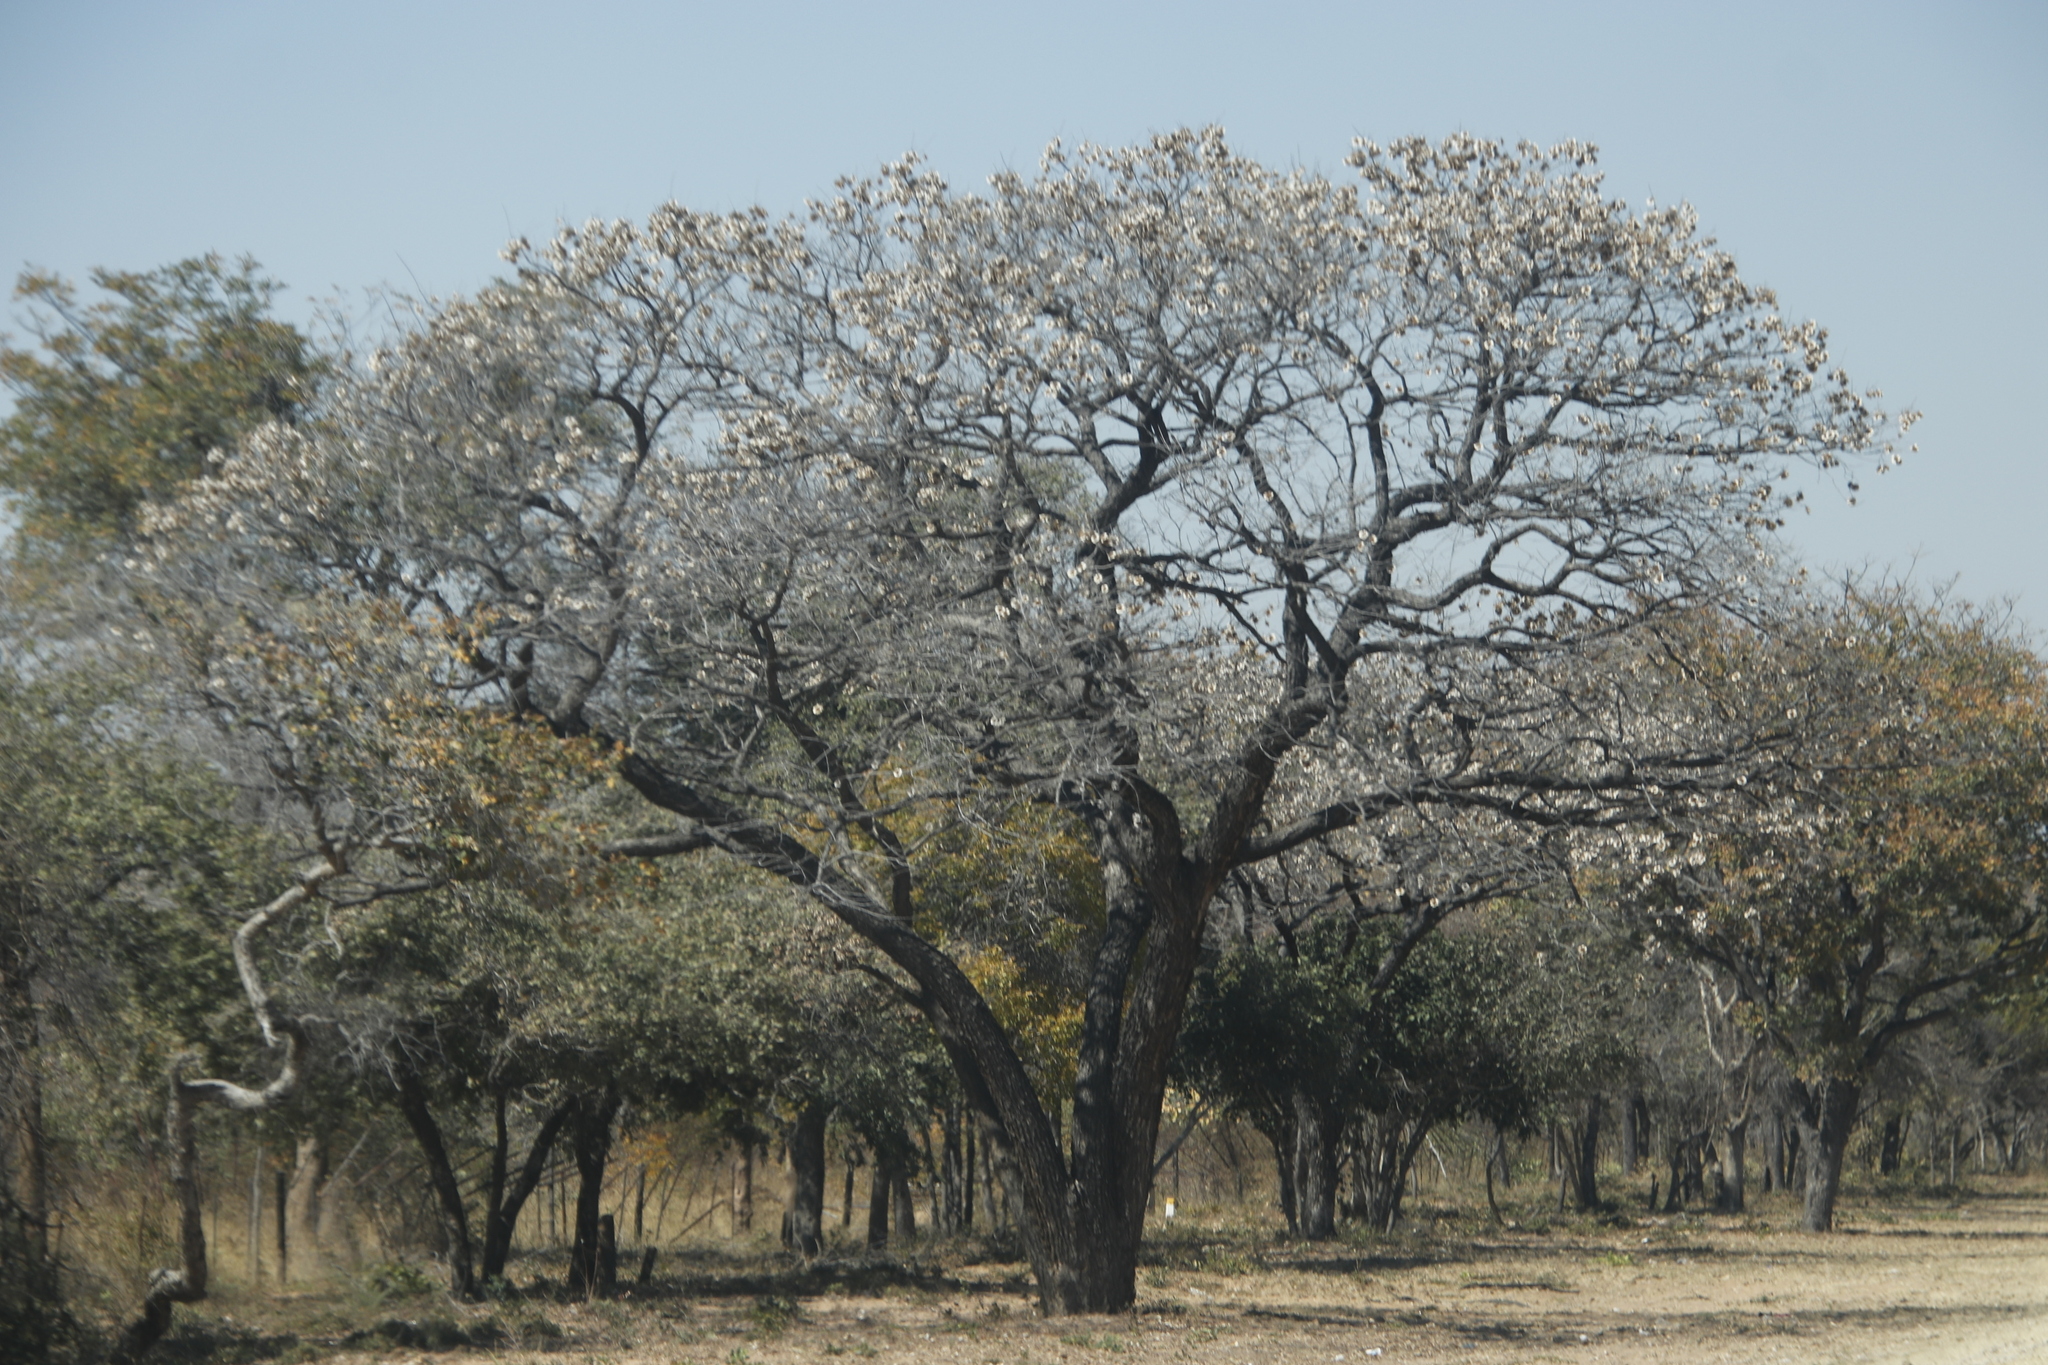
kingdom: Plantae
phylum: Tracheophyta
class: Magnoliopsida
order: Fabales
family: Fabaceae
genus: Pterocarpus
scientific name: Pterocarpus angolensis
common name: Bloodwood tree
